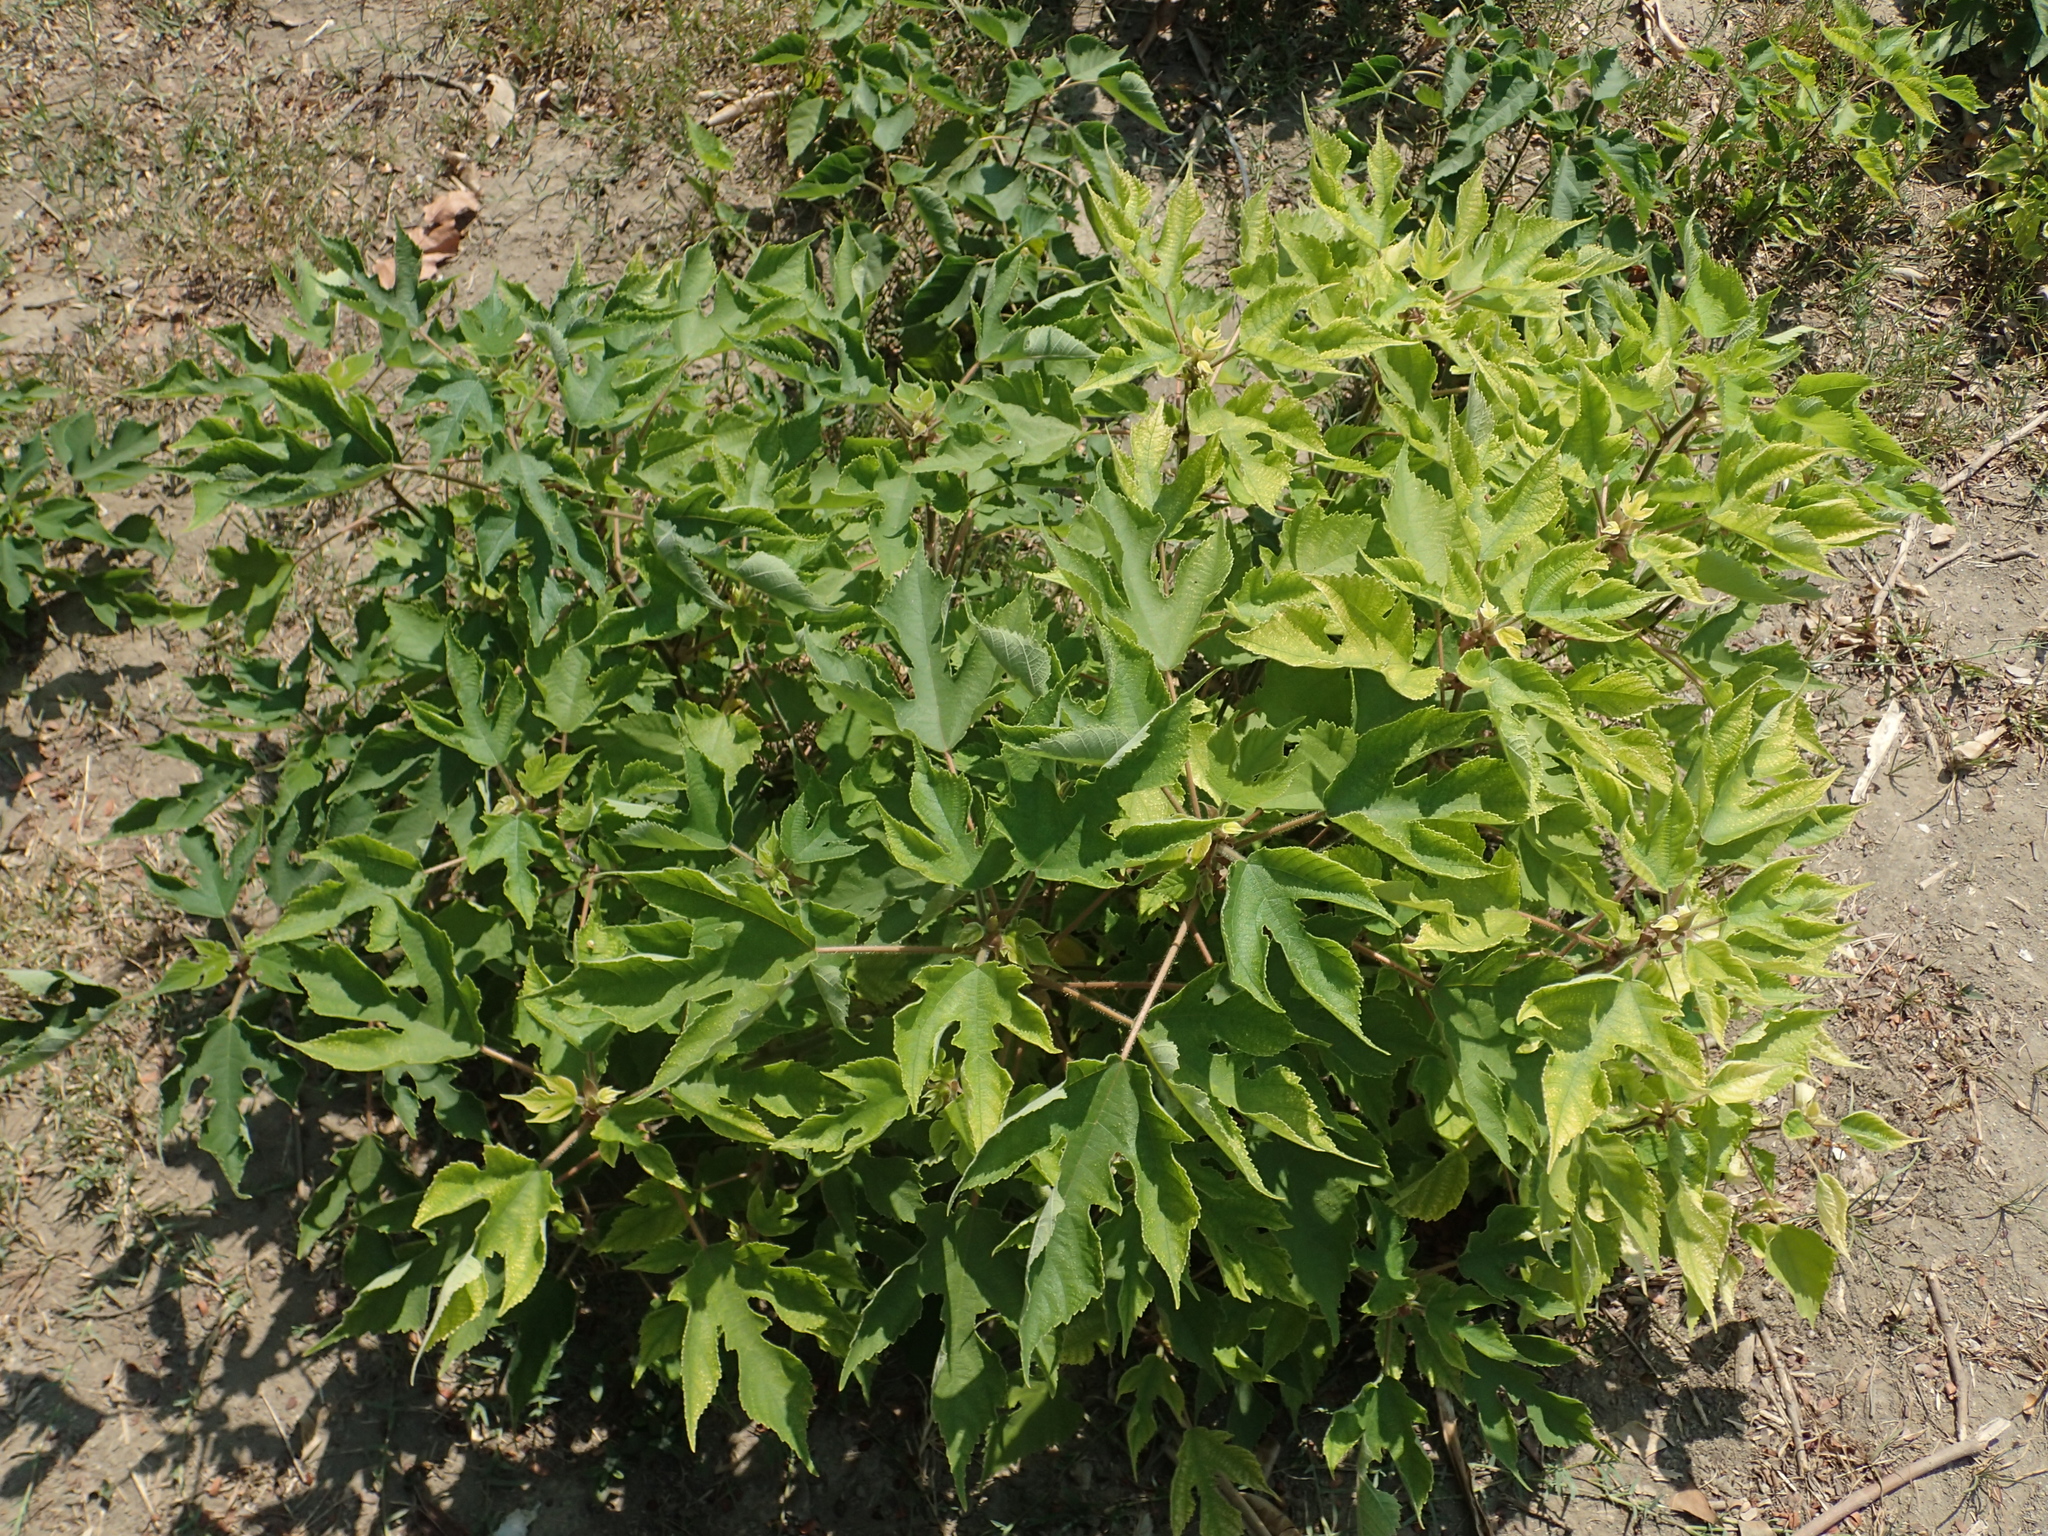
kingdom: Plantae
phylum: Tracheophyta
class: Magnoliopsida
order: Rosales
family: Moraceae
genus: Broussonetia
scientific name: Broussonetia papyrifera
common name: Paper mulberry
